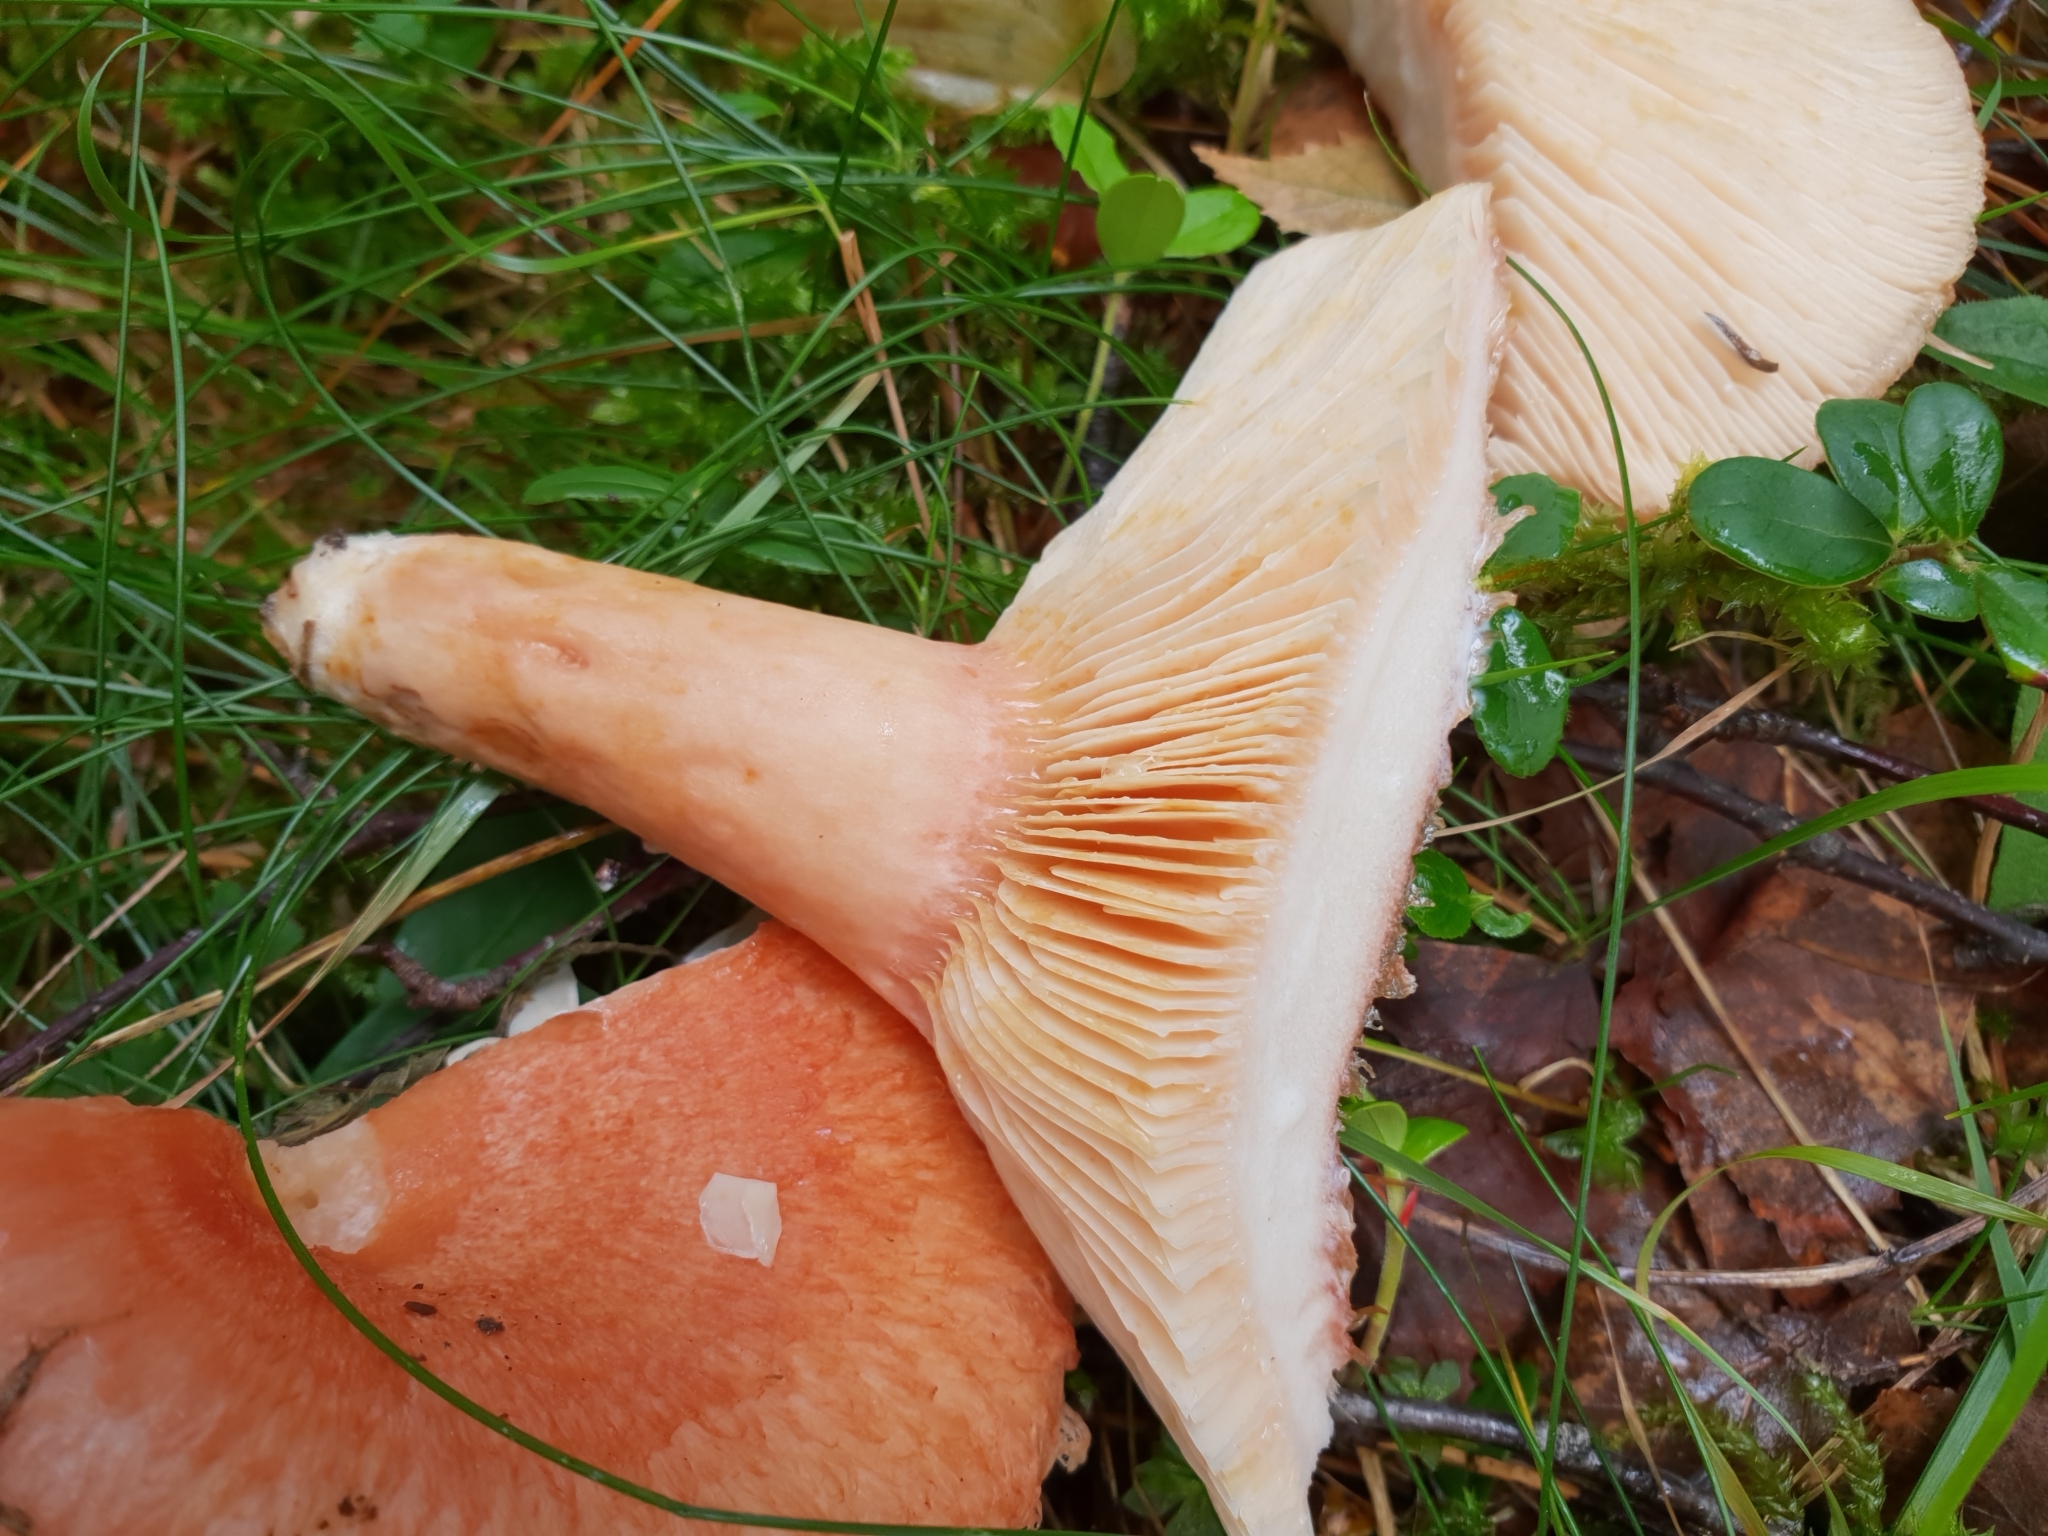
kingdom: Fungi
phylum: Basidiomycota
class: Agaricomycetes
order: Russulales
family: Russulaceae
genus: Lactarius
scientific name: Lactarius torminosus
